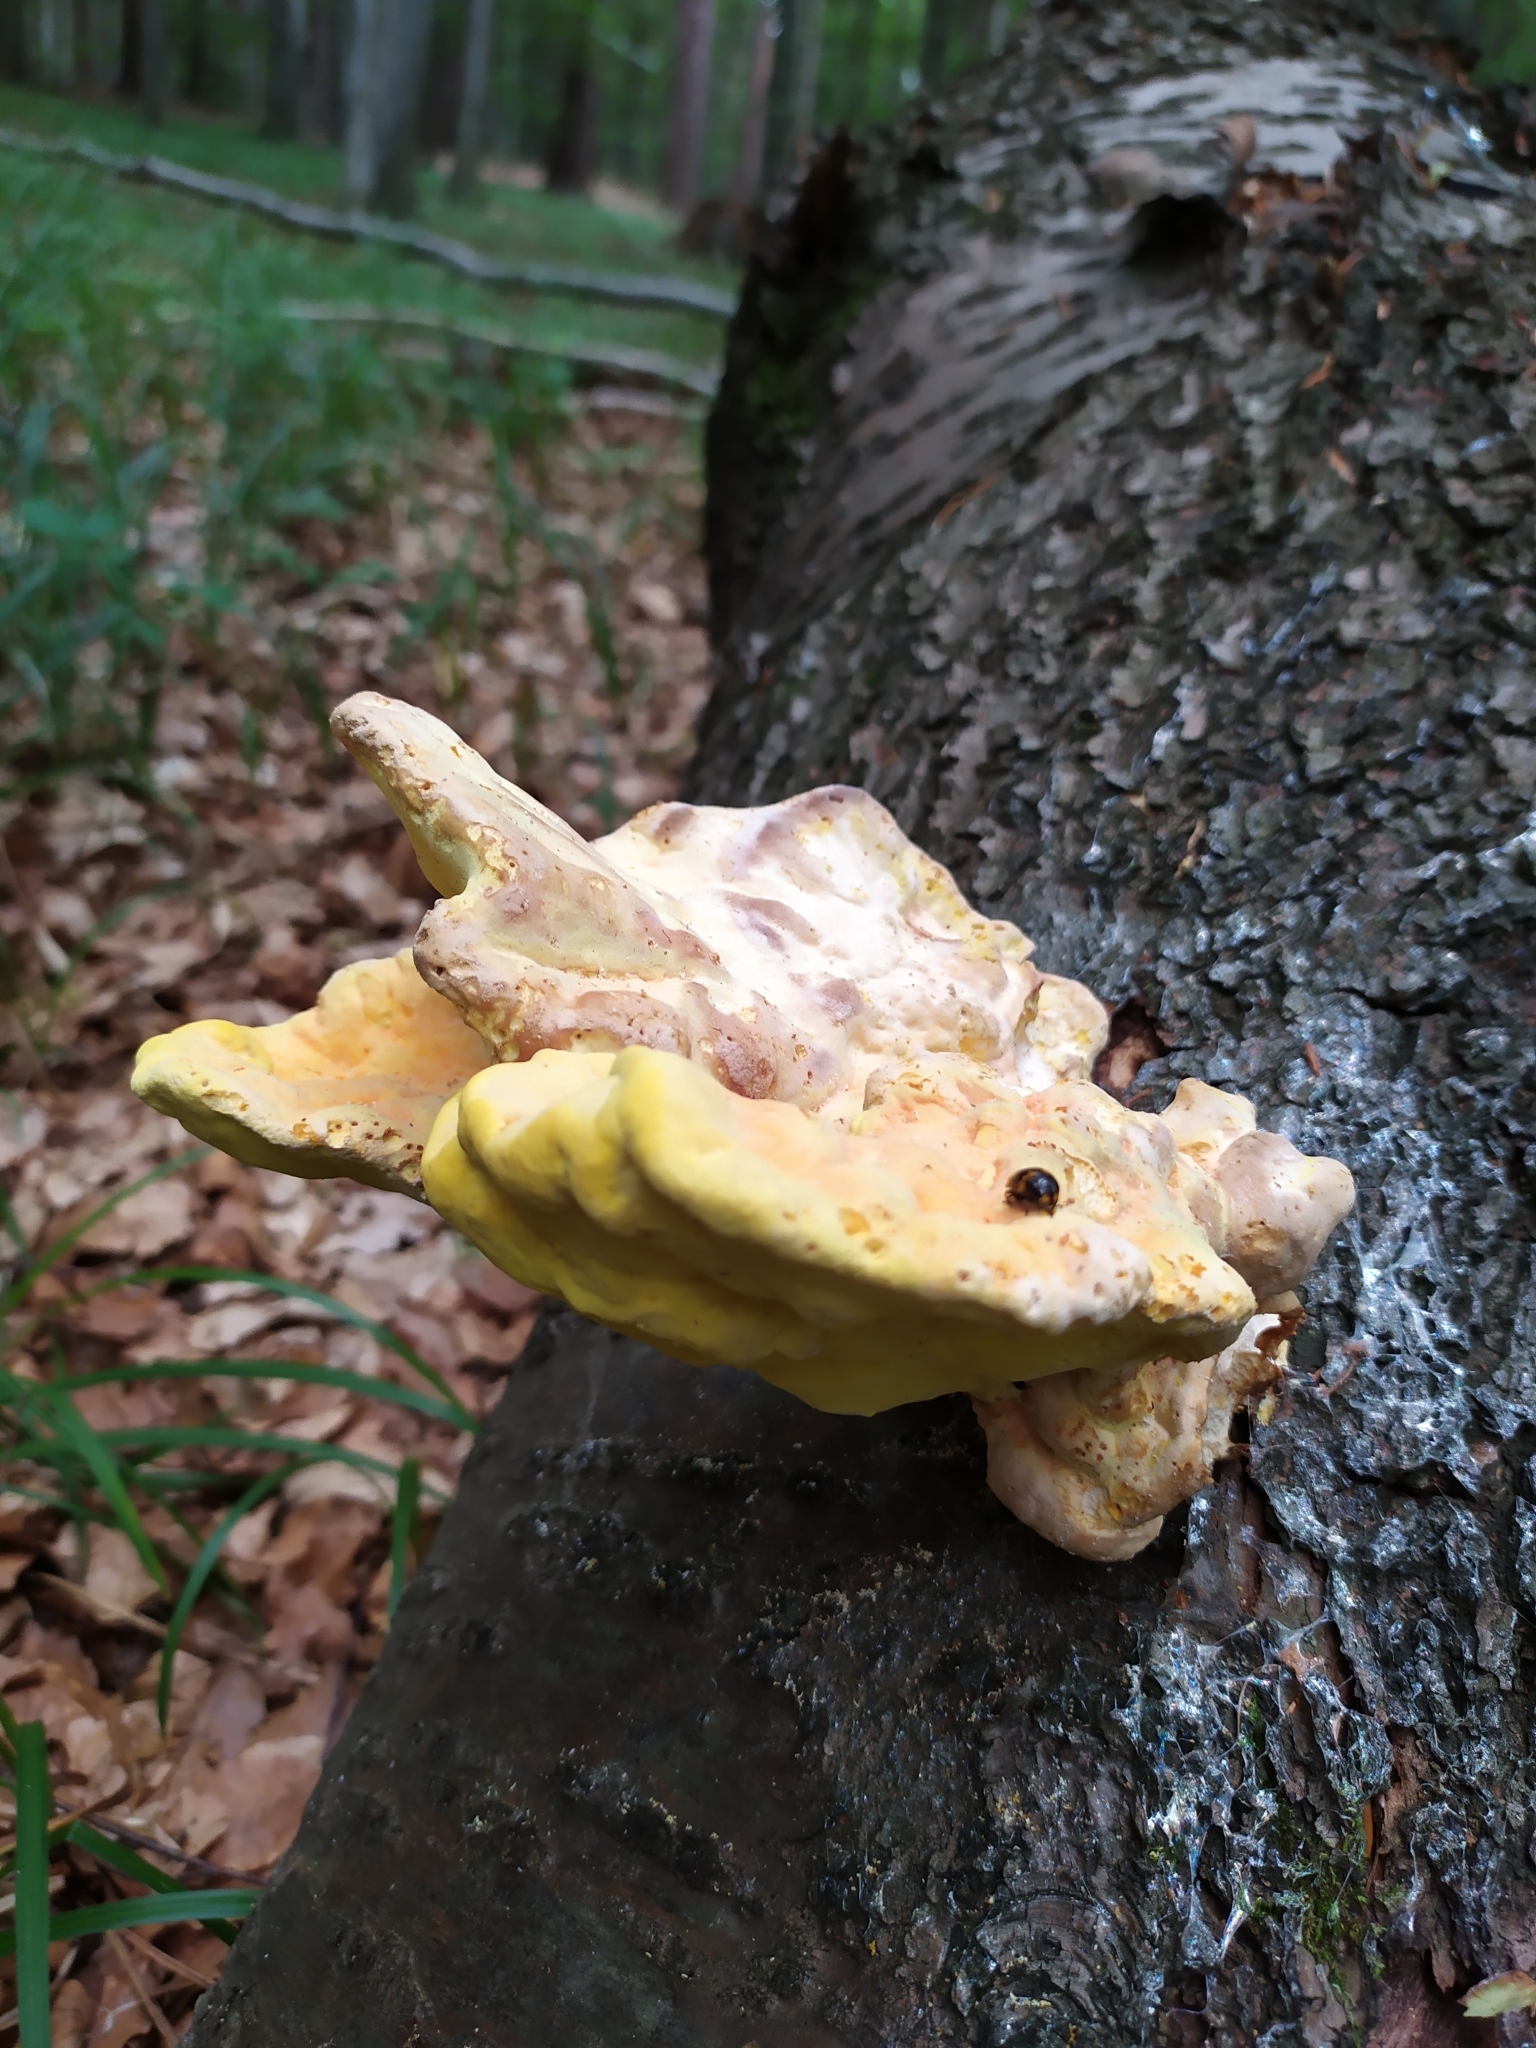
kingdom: Fungi
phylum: Basidiomycota
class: Agaricomycetes
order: Polyporales
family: Laetiporaceae
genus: Laetiporus
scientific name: Laetiporus sulphureus
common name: Chicken of the woods
